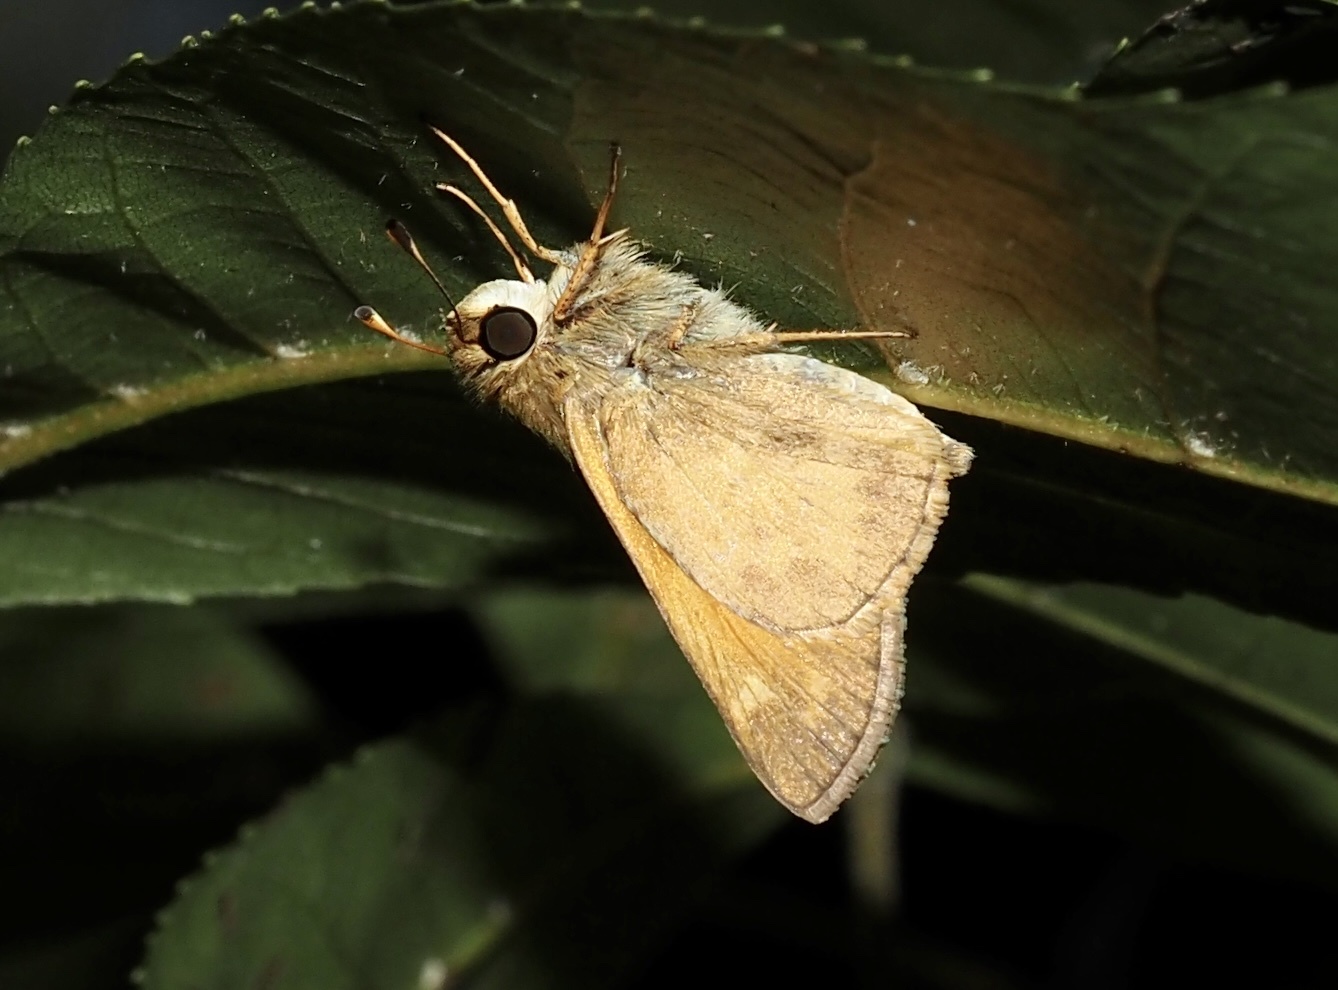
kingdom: Animalia
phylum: Arthropoda
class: Insecta
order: Lepidoptera
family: Hesperiidae
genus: Atalopedes
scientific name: Atalopedes
